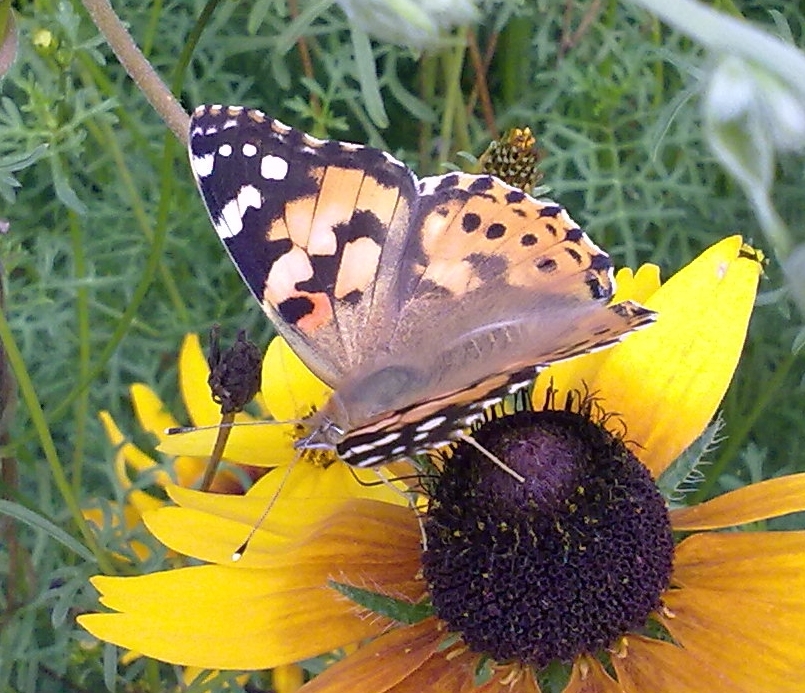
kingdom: Animalia
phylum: Arthropoda
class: Insecta
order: Lepidoptera
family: Nymphalidae
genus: Vanessa
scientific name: Vanessa cardui
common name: Painted lady
